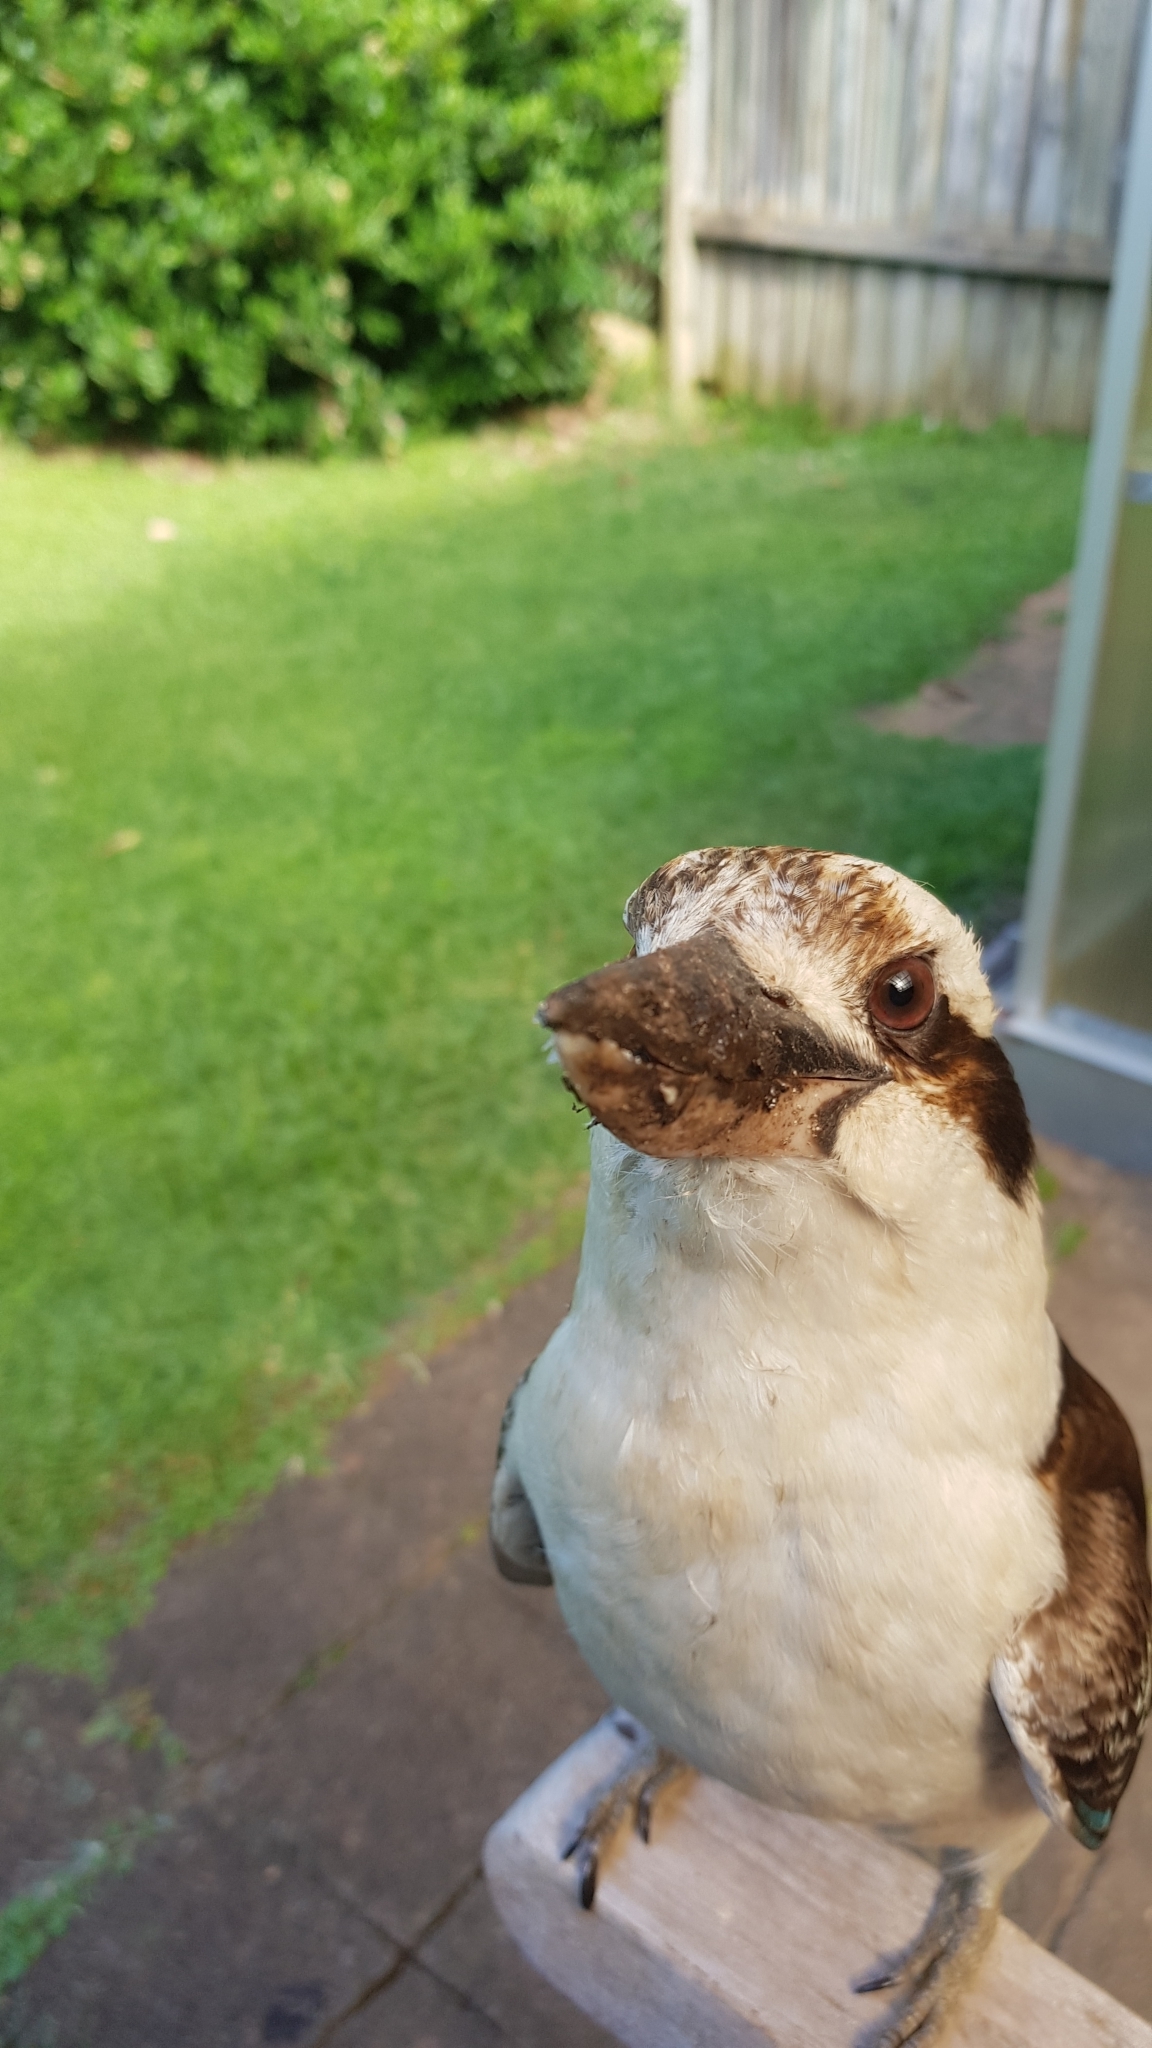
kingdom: Animalia
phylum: Chordata
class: Aves
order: Coraciiformes
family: Alcedinidae
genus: Dacelo
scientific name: Dacelo novaeguineae
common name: Laughing kookaburra
